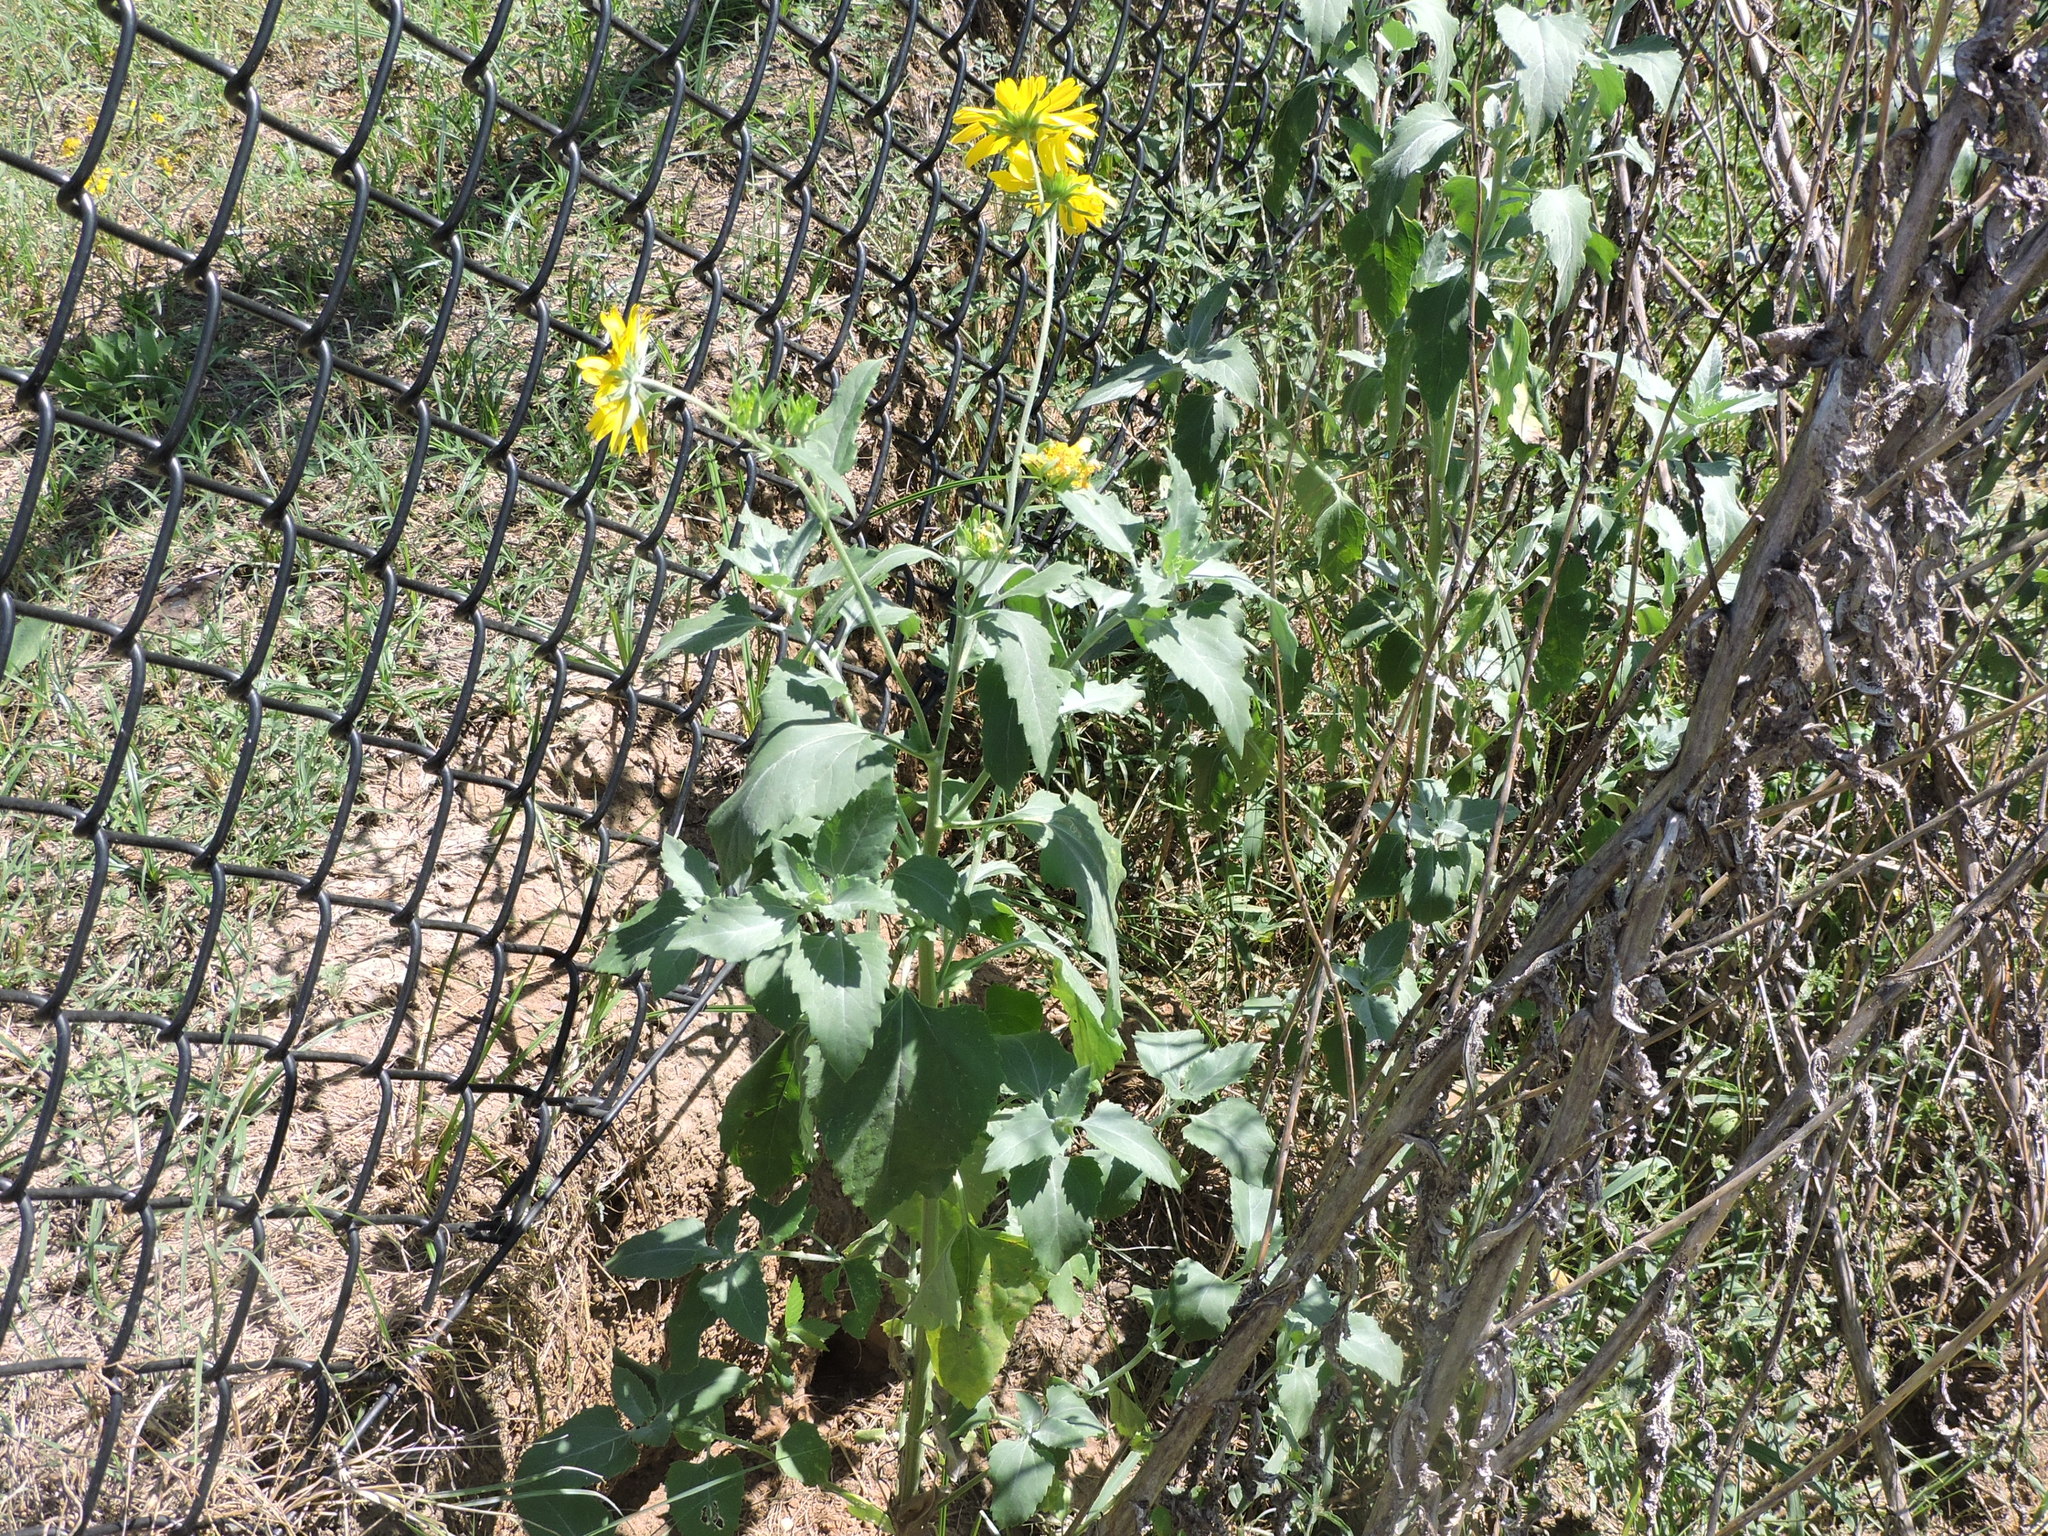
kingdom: Plantae
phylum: Tracheophyta
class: Magnoliopsida
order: Asterales
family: Asteraceae
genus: Verbesina
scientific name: Verbesina encelioides
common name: Golden crownbeard
